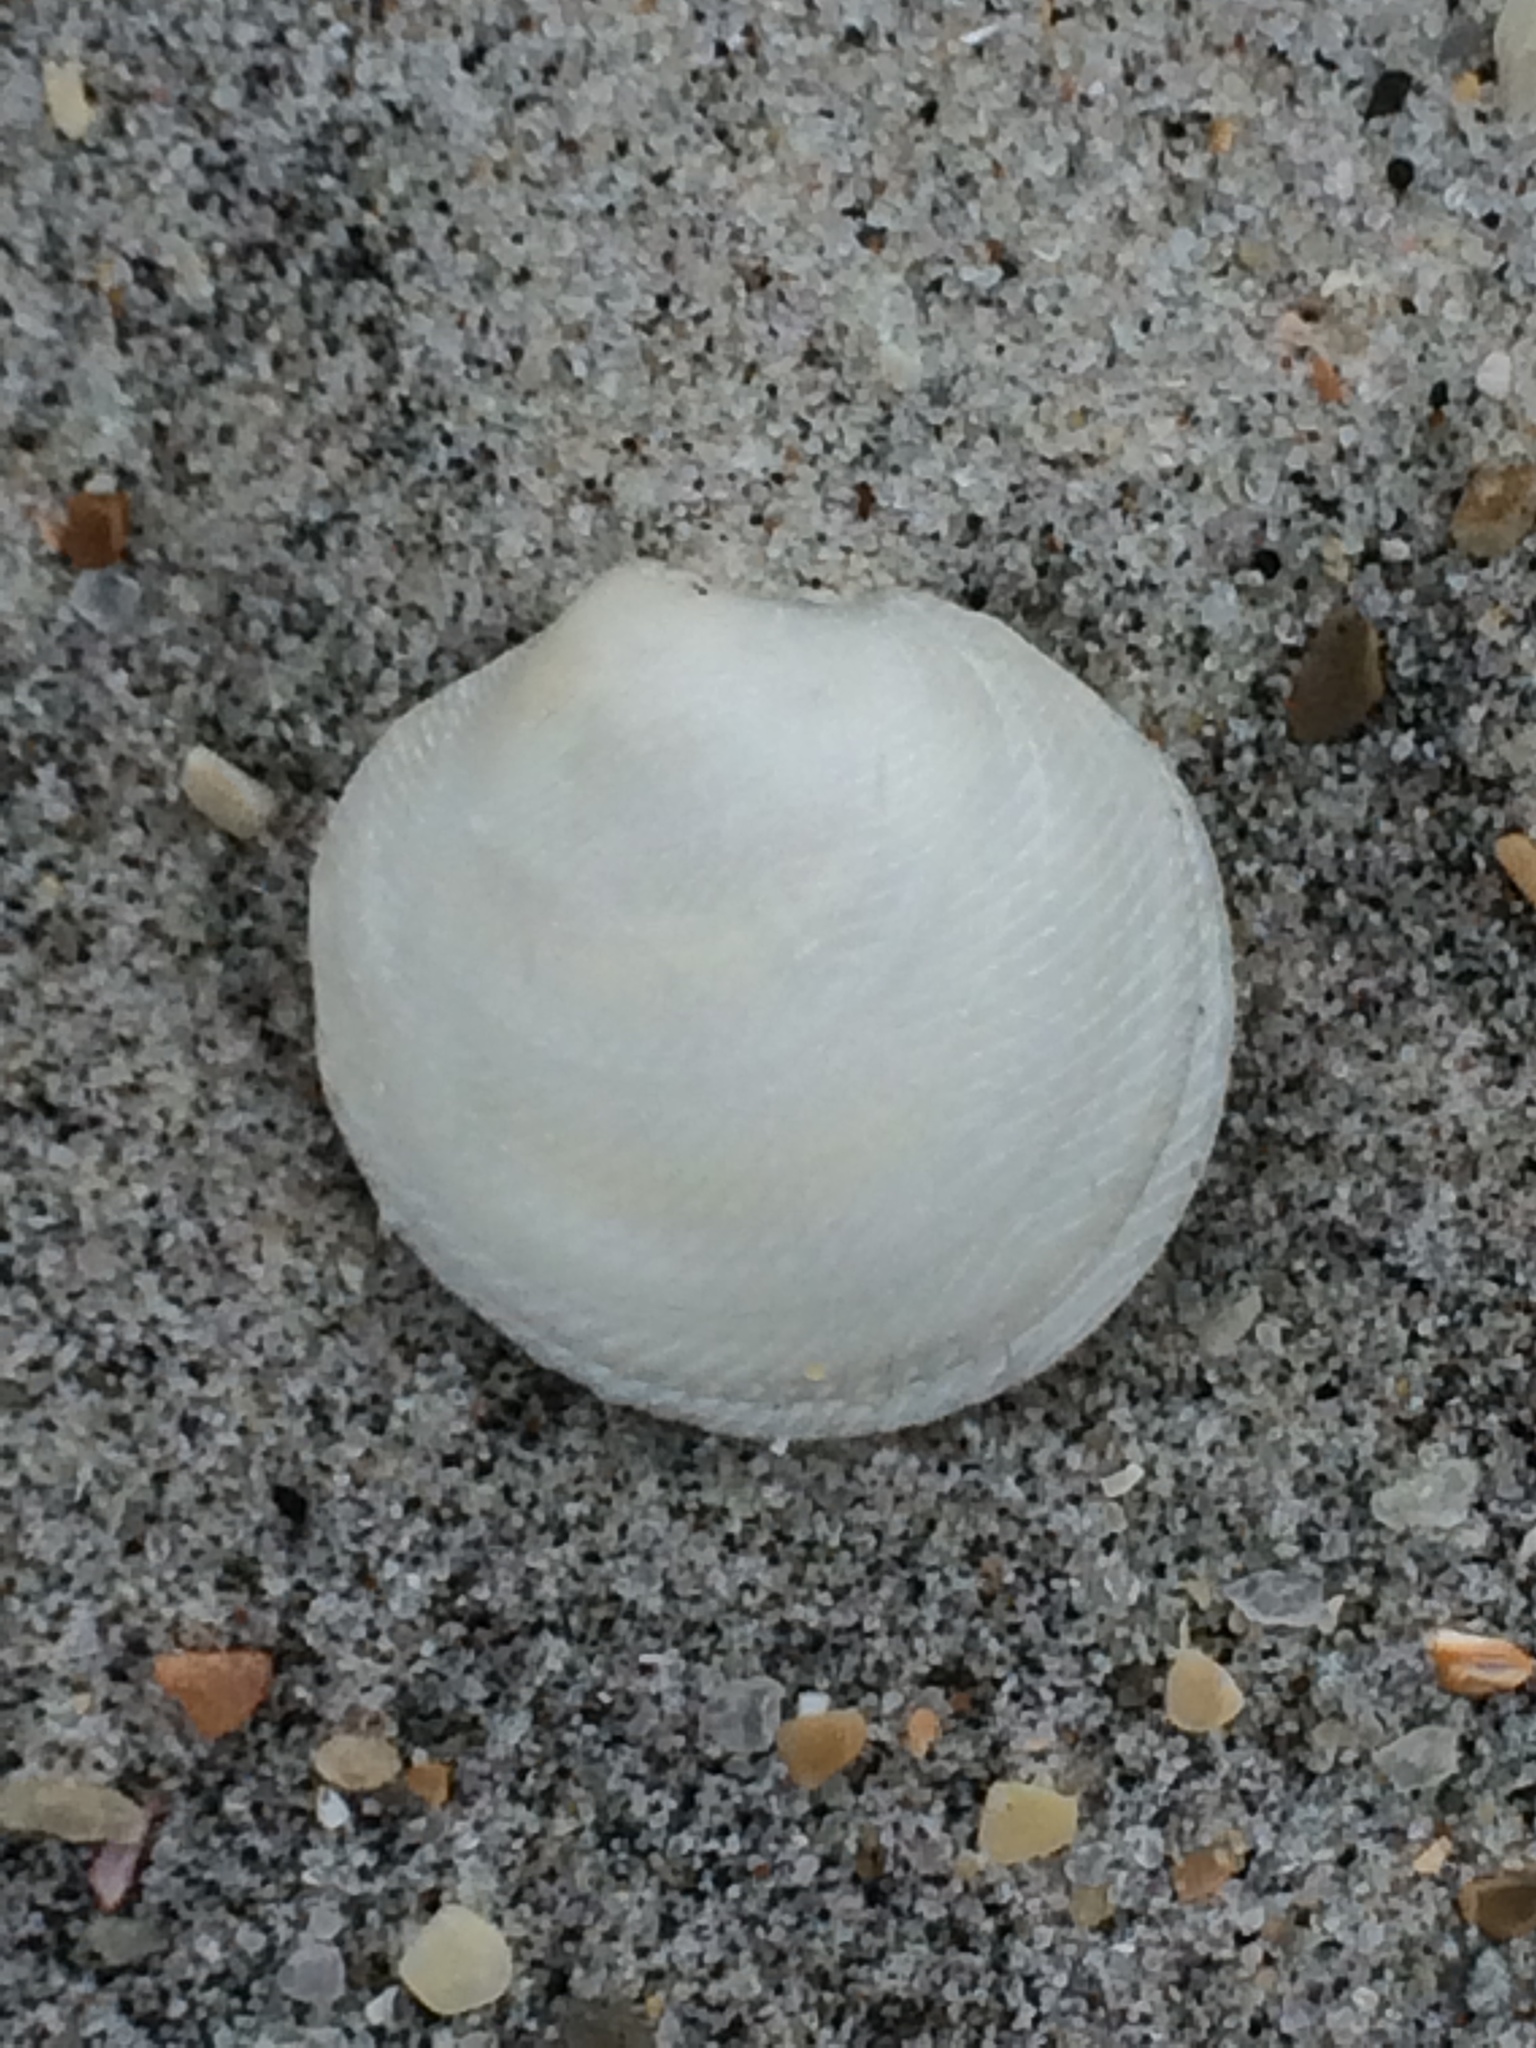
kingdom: Animalia
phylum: Mollusca
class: Bivalvia
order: Lucinida
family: Lucinidae
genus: Divalinga
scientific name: Divalinga quadrisulcata
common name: Cross-hatched lucine
